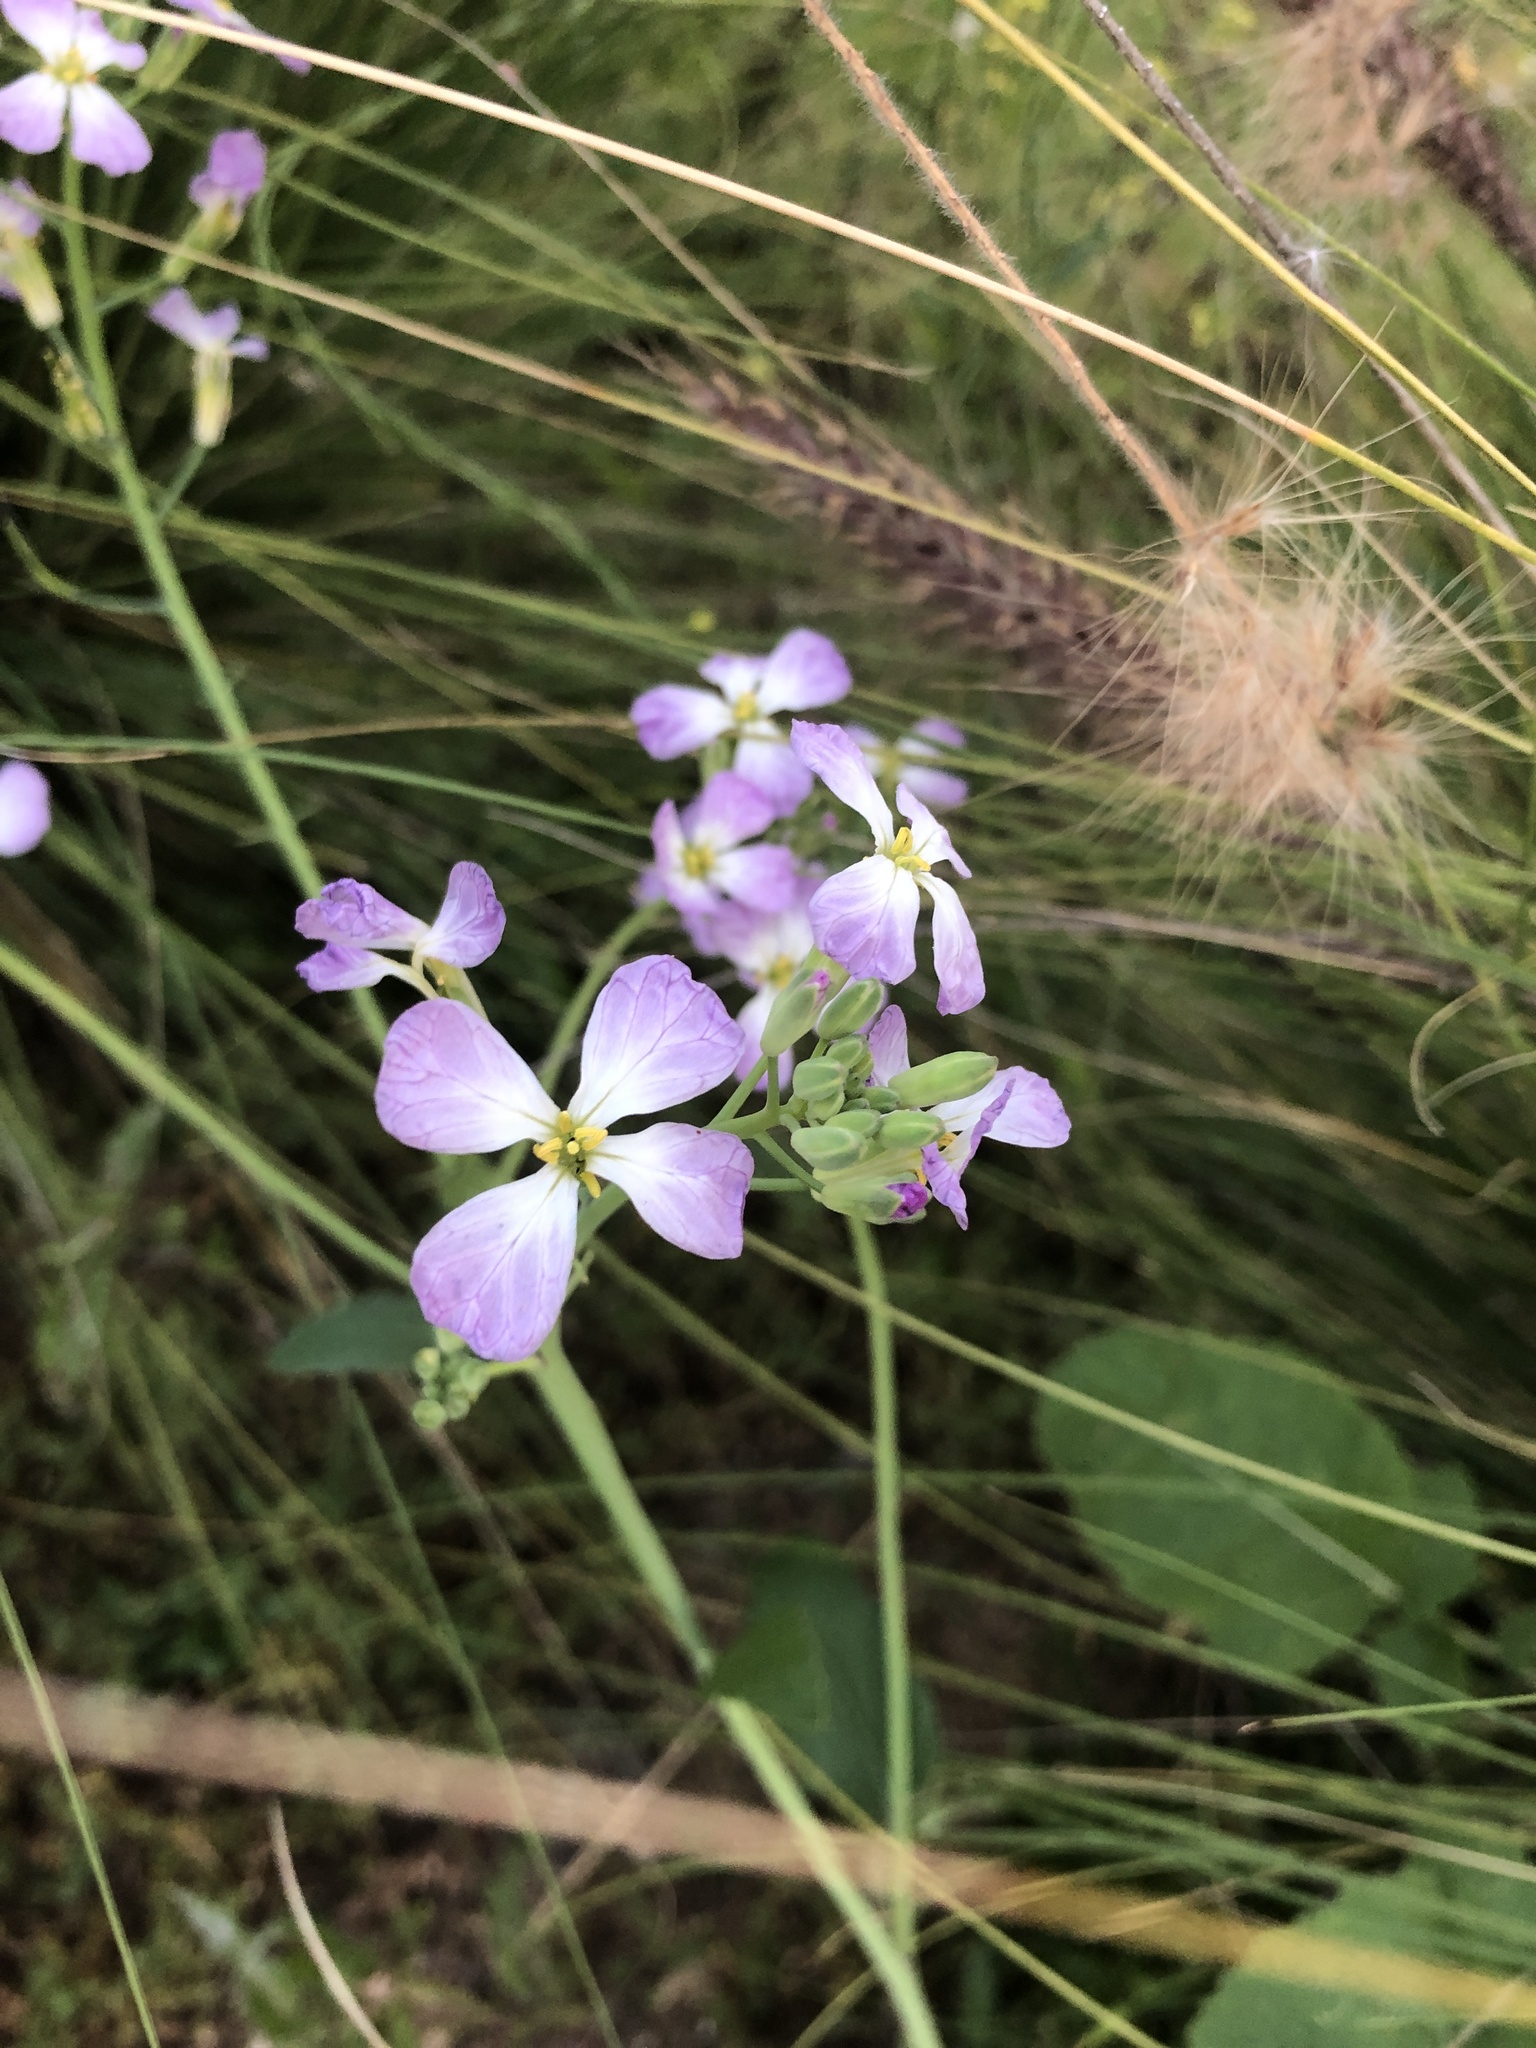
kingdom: Plantae
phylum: Tracheophyta
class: Magnoliopsida
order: Brassicales
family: Brassicaceae
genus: Raphanus
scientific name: Raphanus sativus
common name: Cultivated radish
